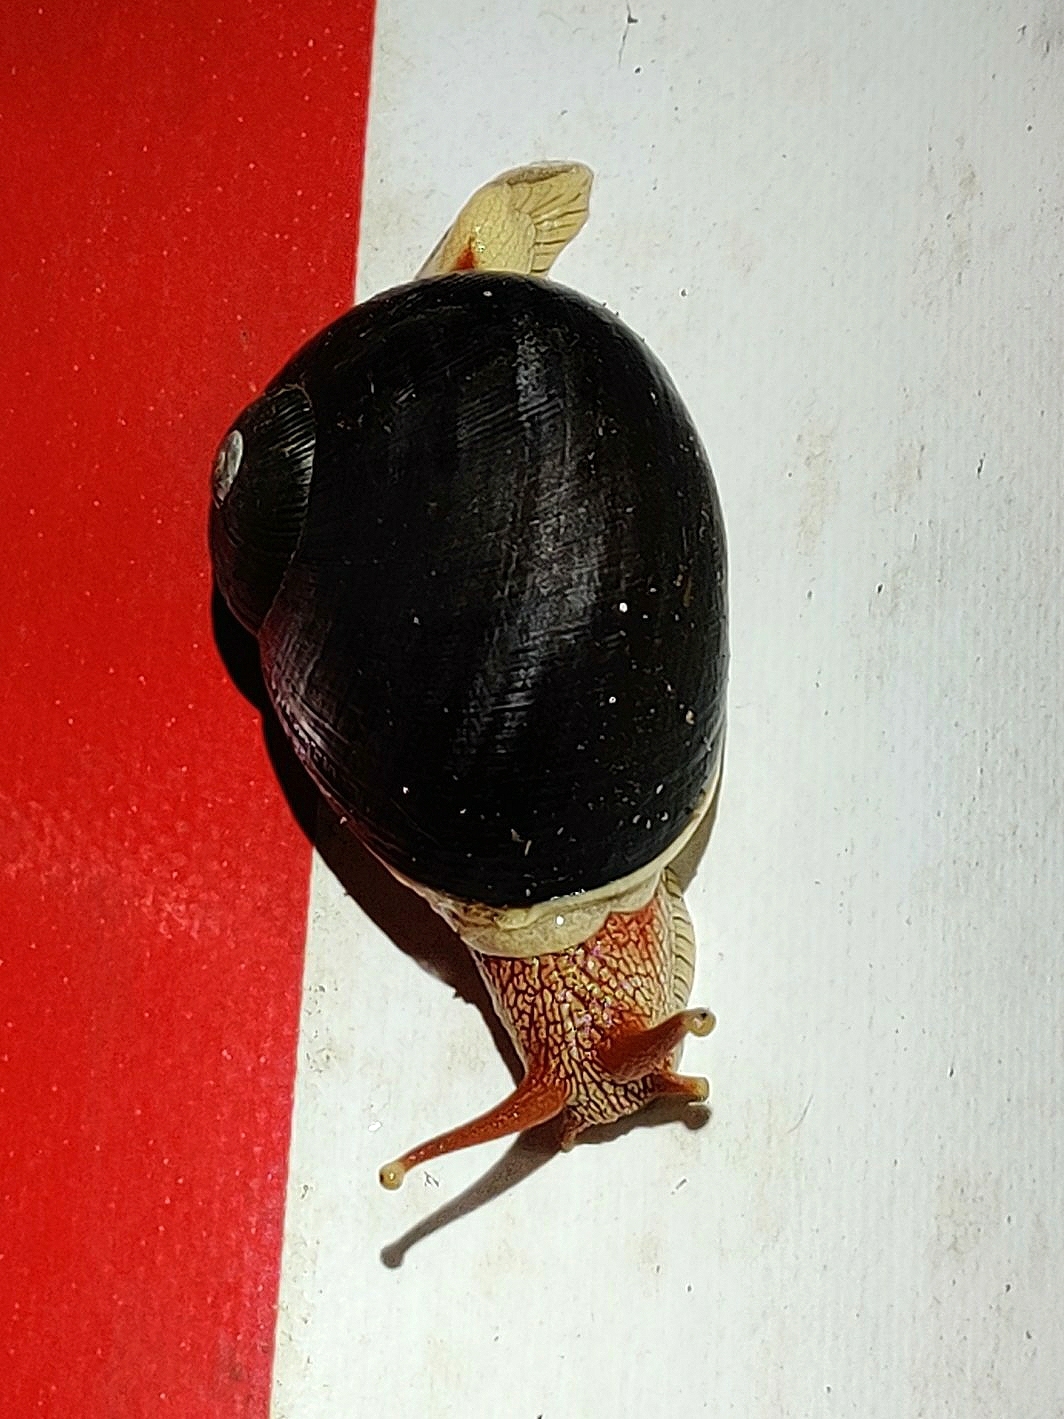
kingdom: Animalia
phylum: Mollusca
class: Gastropoda
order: Stylommatophora
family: Ariophantidae
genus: Indrella
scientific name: Indrella ampulla
